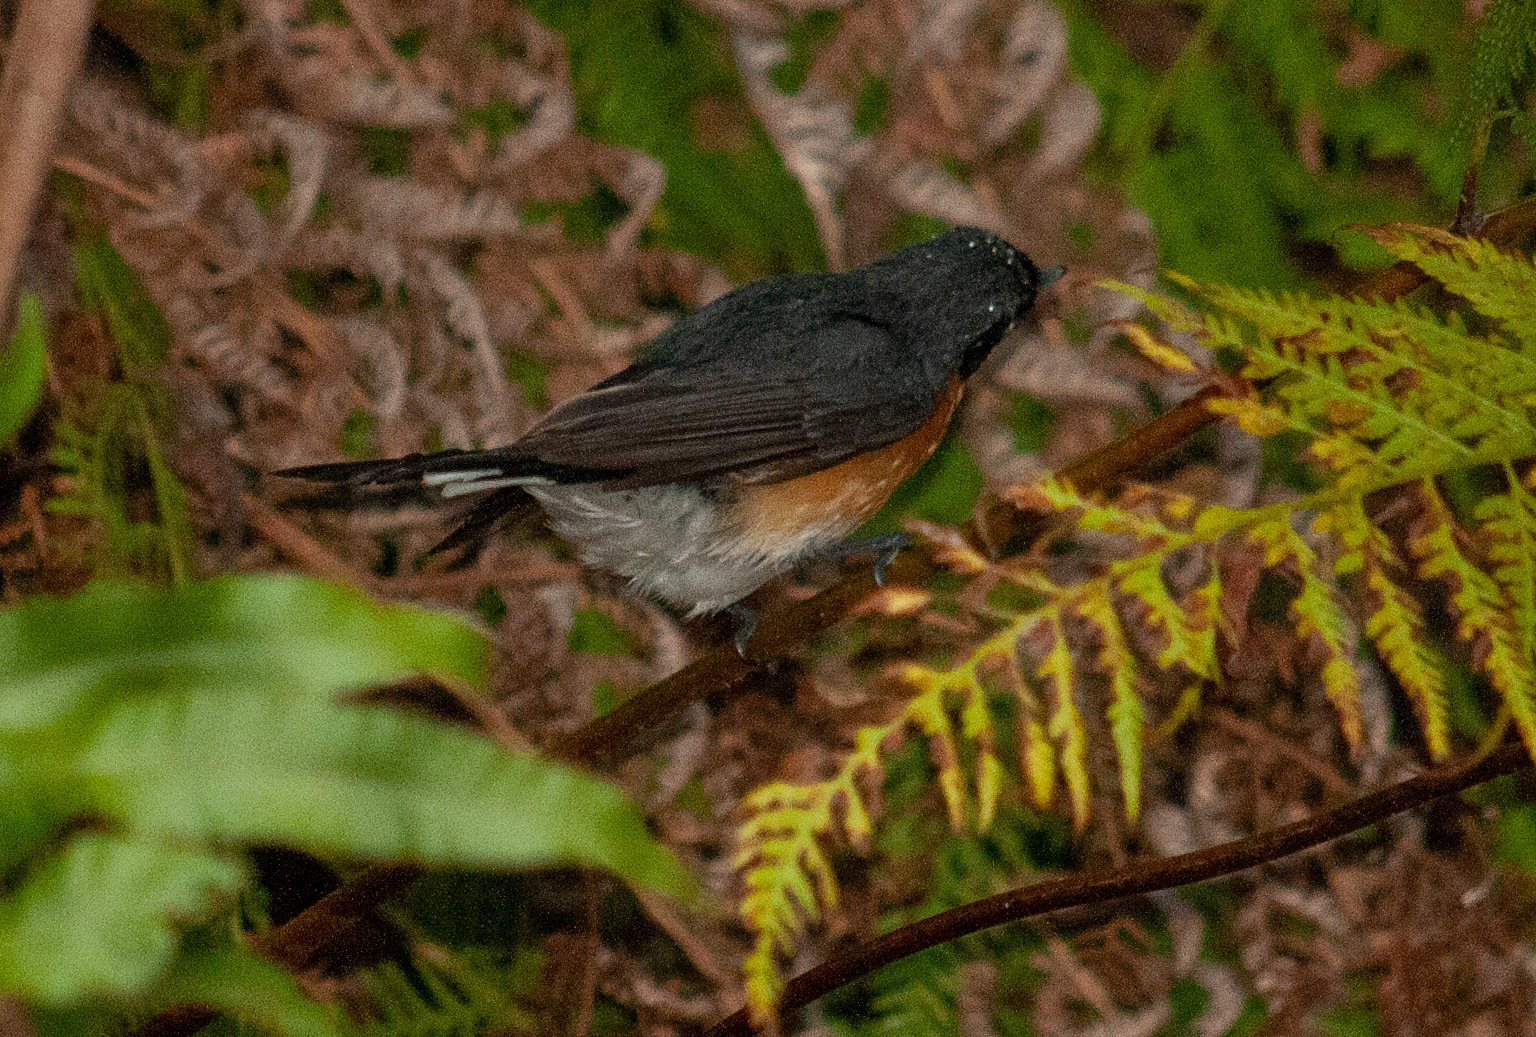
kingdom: Animalia
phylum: Chordata
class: Aves
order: Passeriformes
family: Monarchidae
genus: Symposiachrus
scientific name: Symposiachrus trivirgatus
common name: Spectacled monarch
